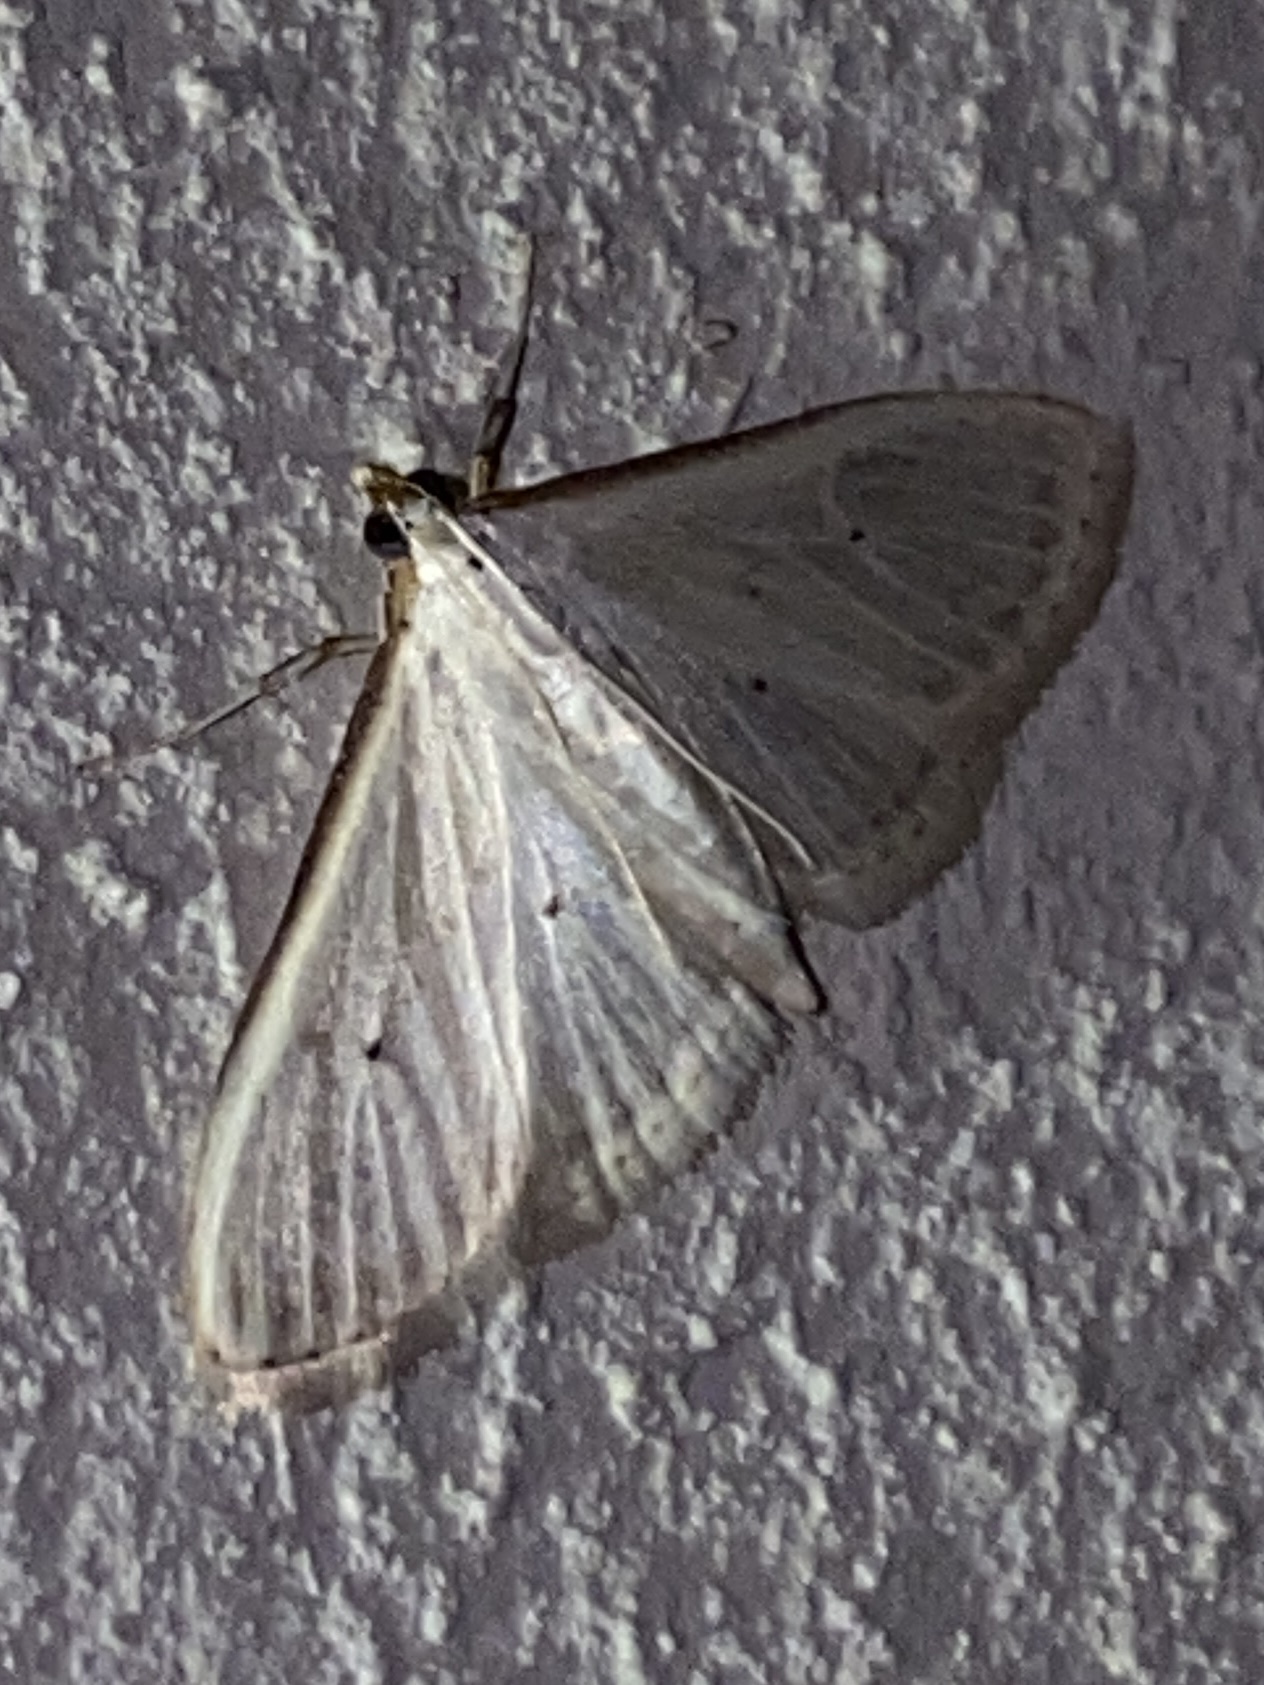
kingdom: Animalia
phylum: Arthropoda
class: Insecta
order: Lepidoptera
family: Crambidae
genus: Palpita
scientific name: Palpita vitrealis
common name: Olive-tree pearl
